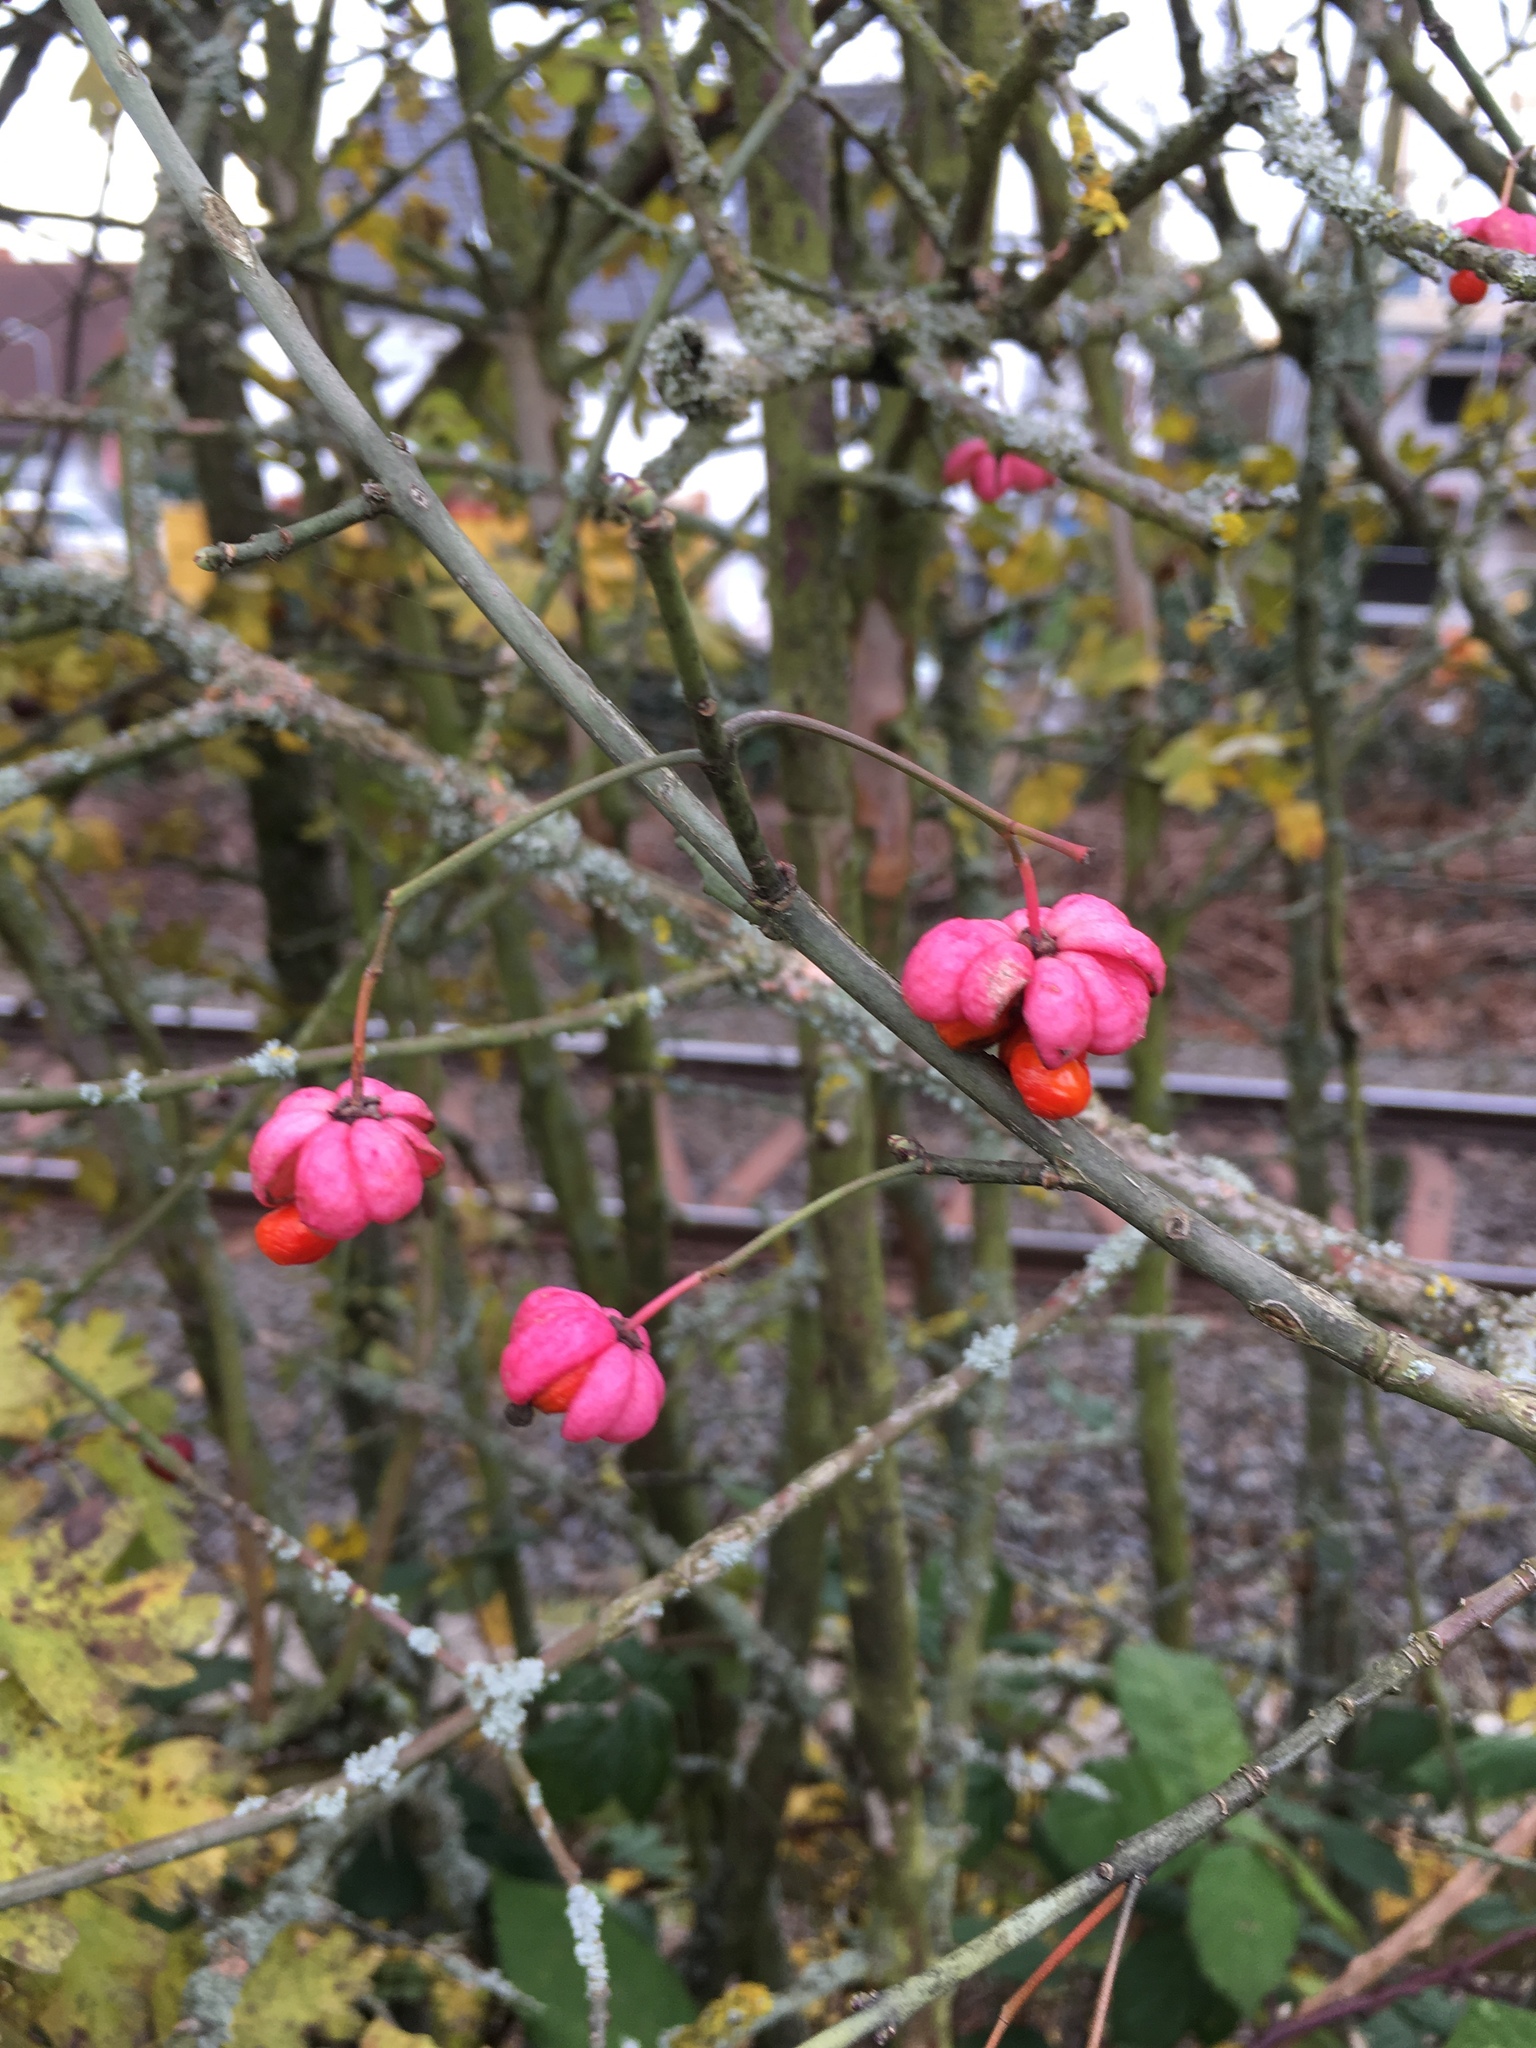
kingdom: Plantae
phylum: Tracheophyta
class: Magnoliopsida
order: Celastrales
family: Celastraceae
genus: Euonymus
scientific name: Euonymus europaeus
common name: Spindle
